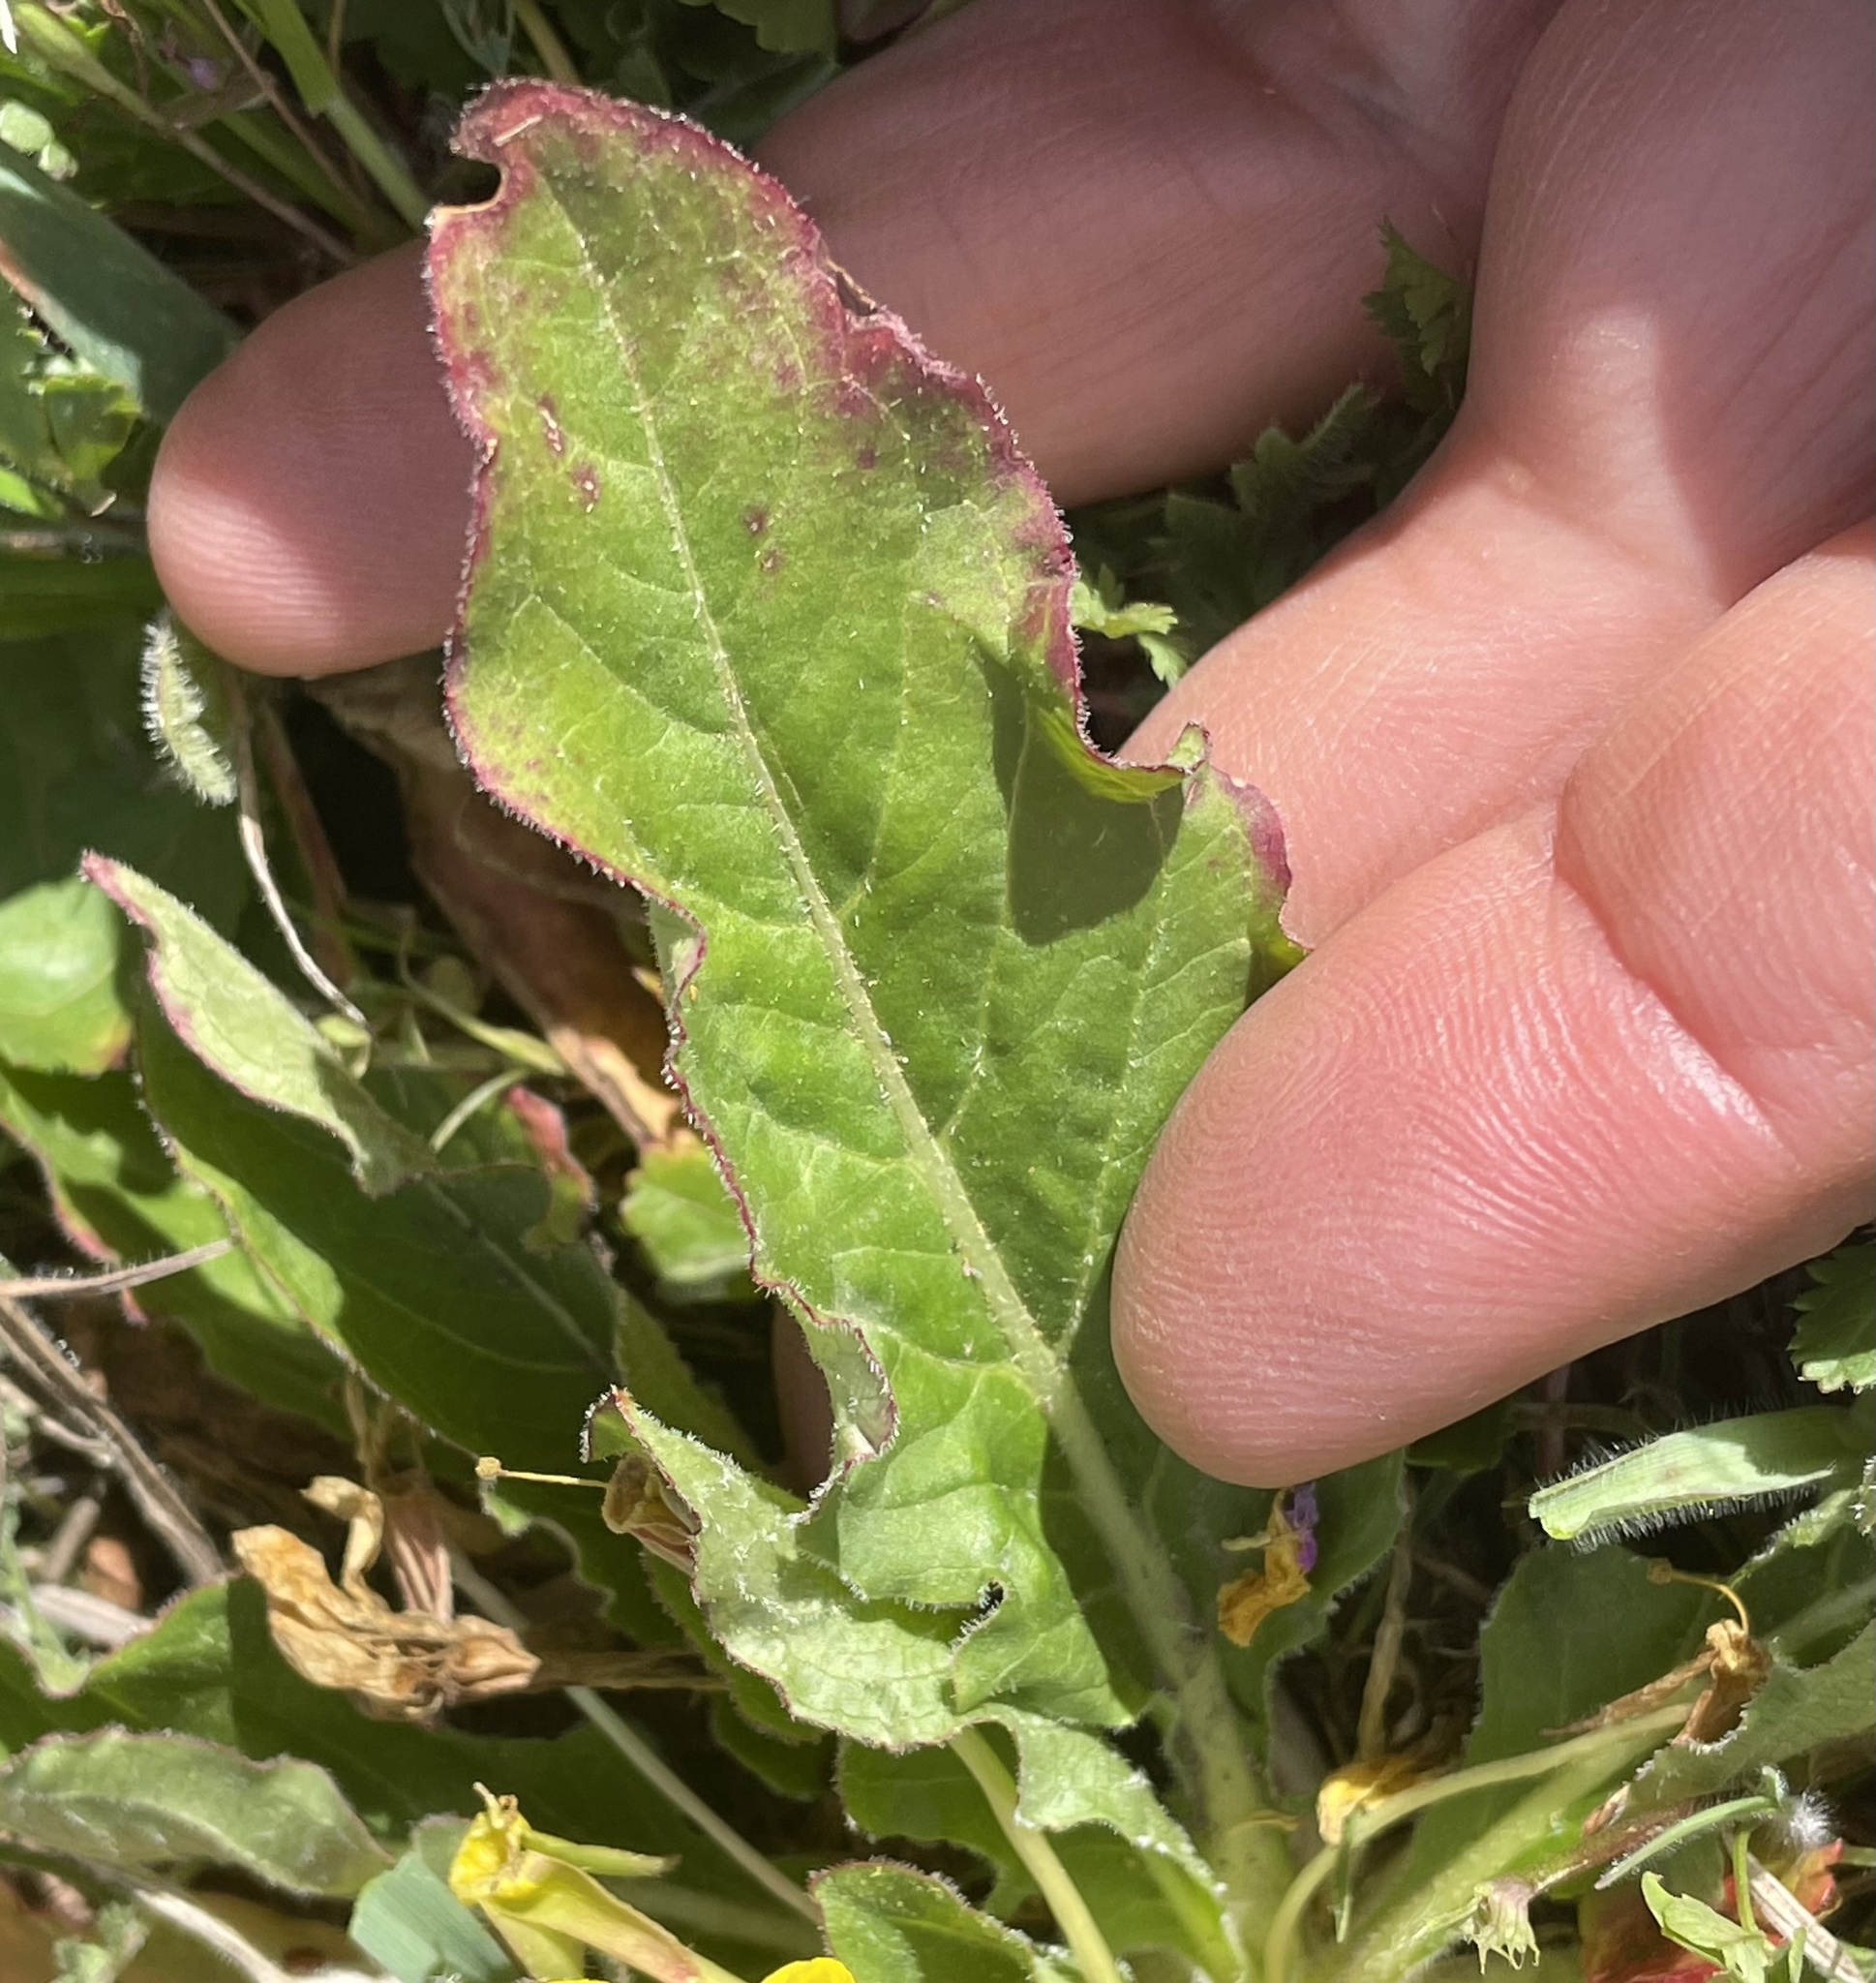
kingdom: Plantae
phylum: Tracheophyta
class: Magnoliopsida
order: Myrtales
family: Onagraceae
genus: Taraxia
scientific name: Taraxia ovata
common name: Goldeneggs
